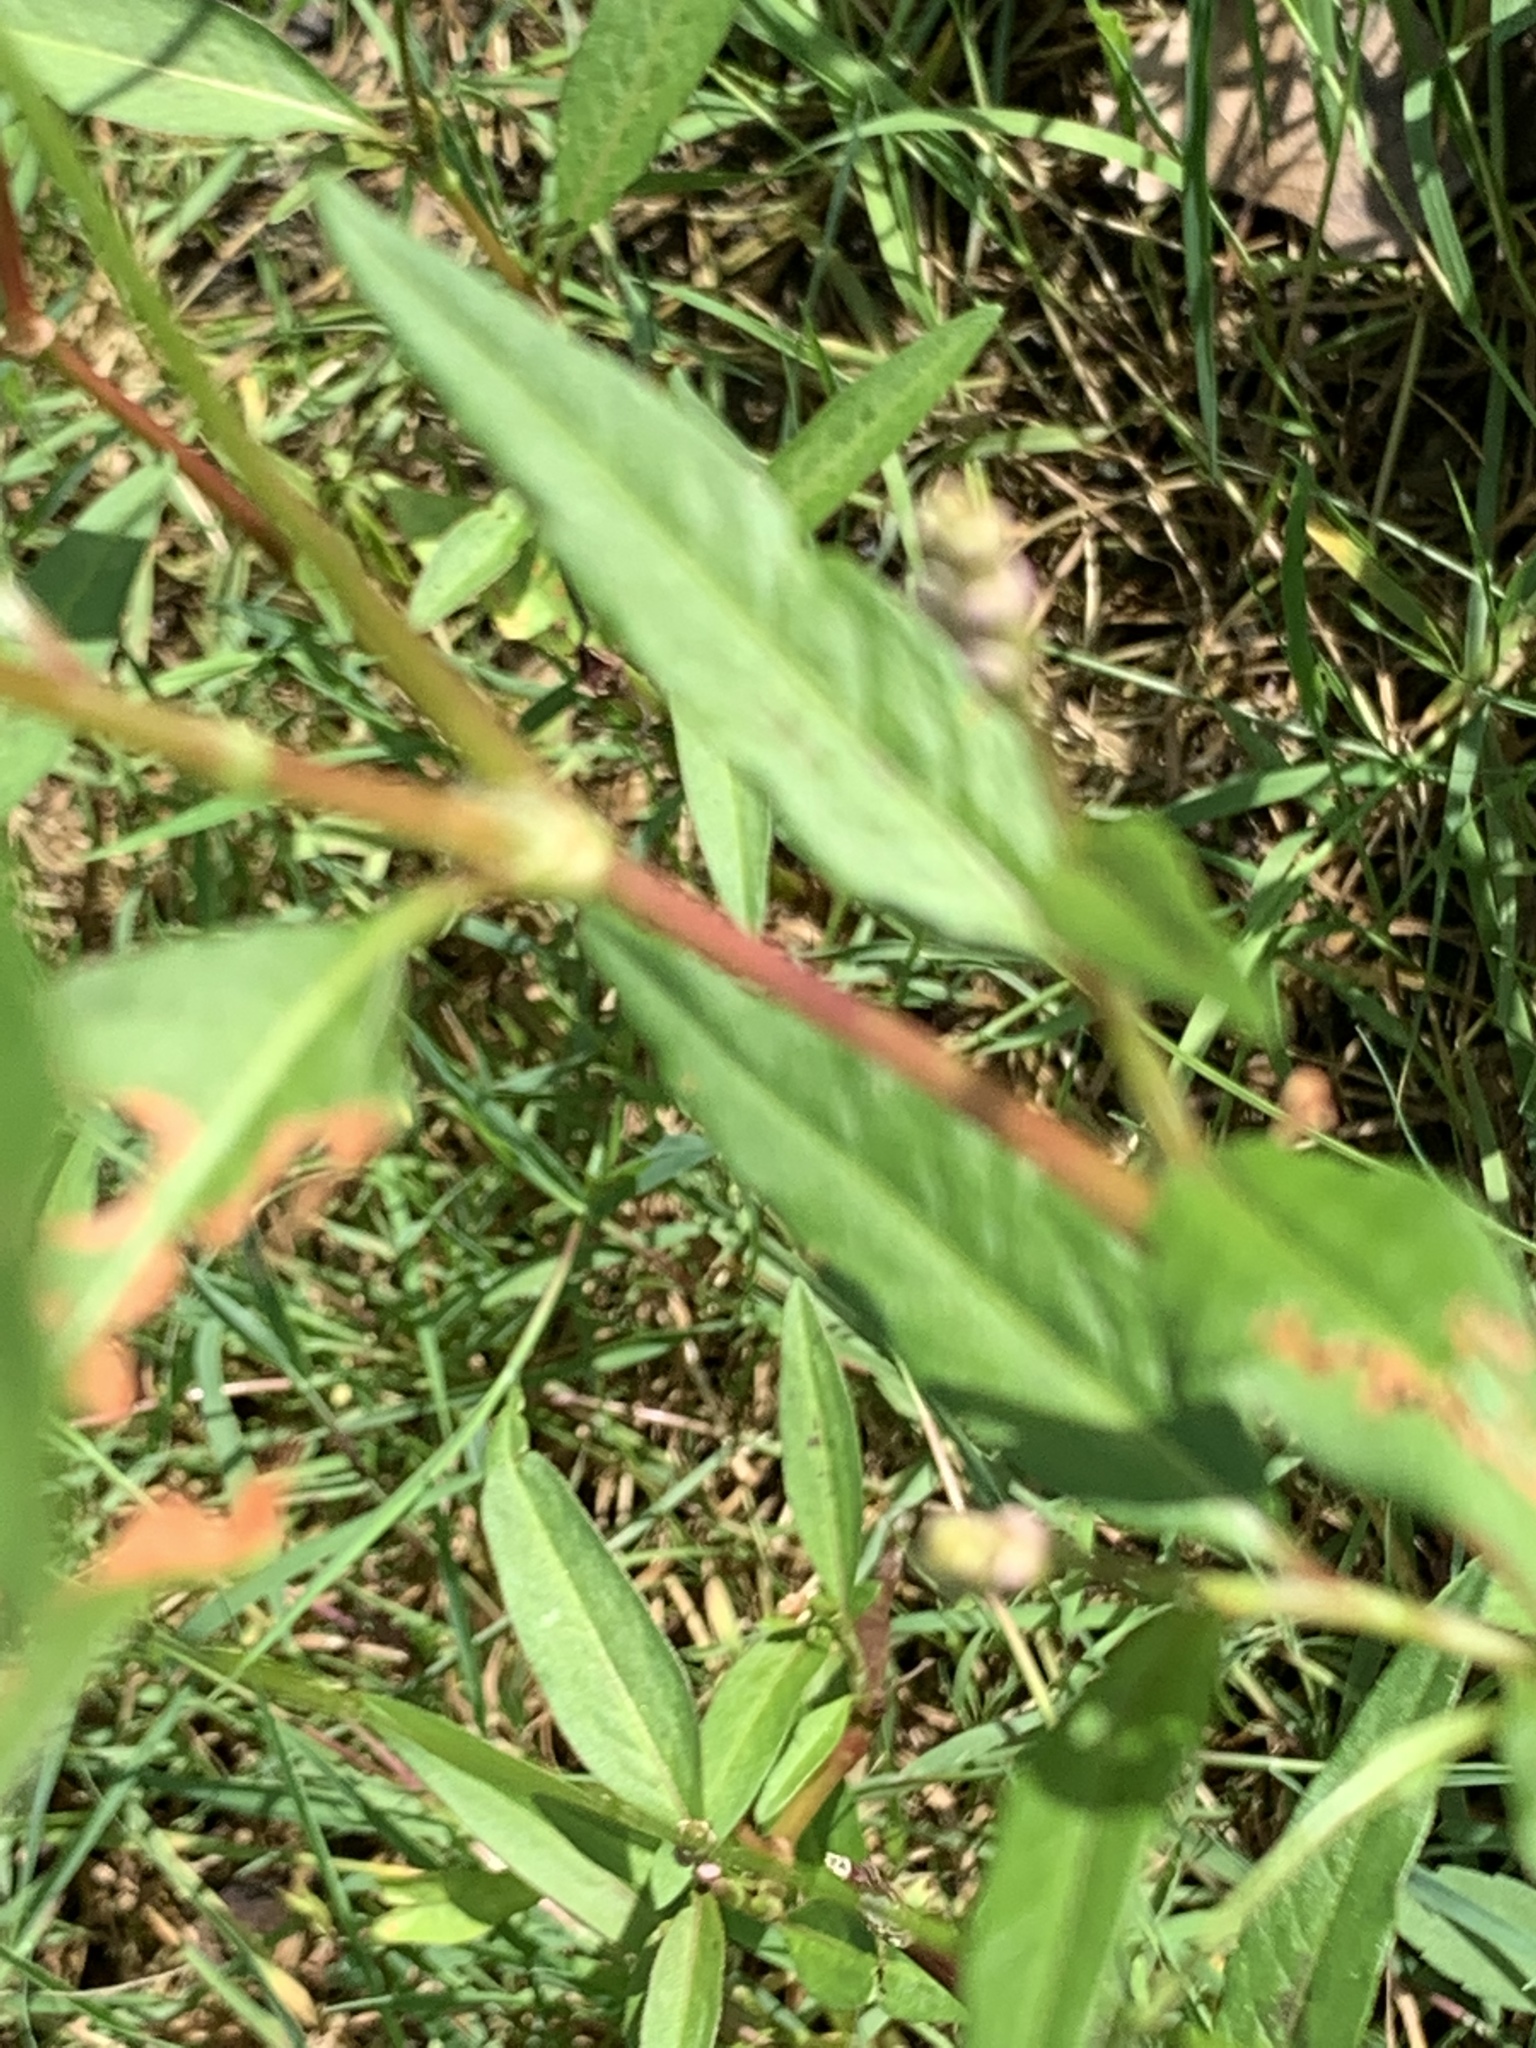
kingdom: Plantae
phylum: Tracheophyta
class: Magnoliopsida
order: Caryophyllales
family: Polygonaceae
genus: Persicaria
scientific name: Persicaria pensylvanica
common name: Pinkweed
